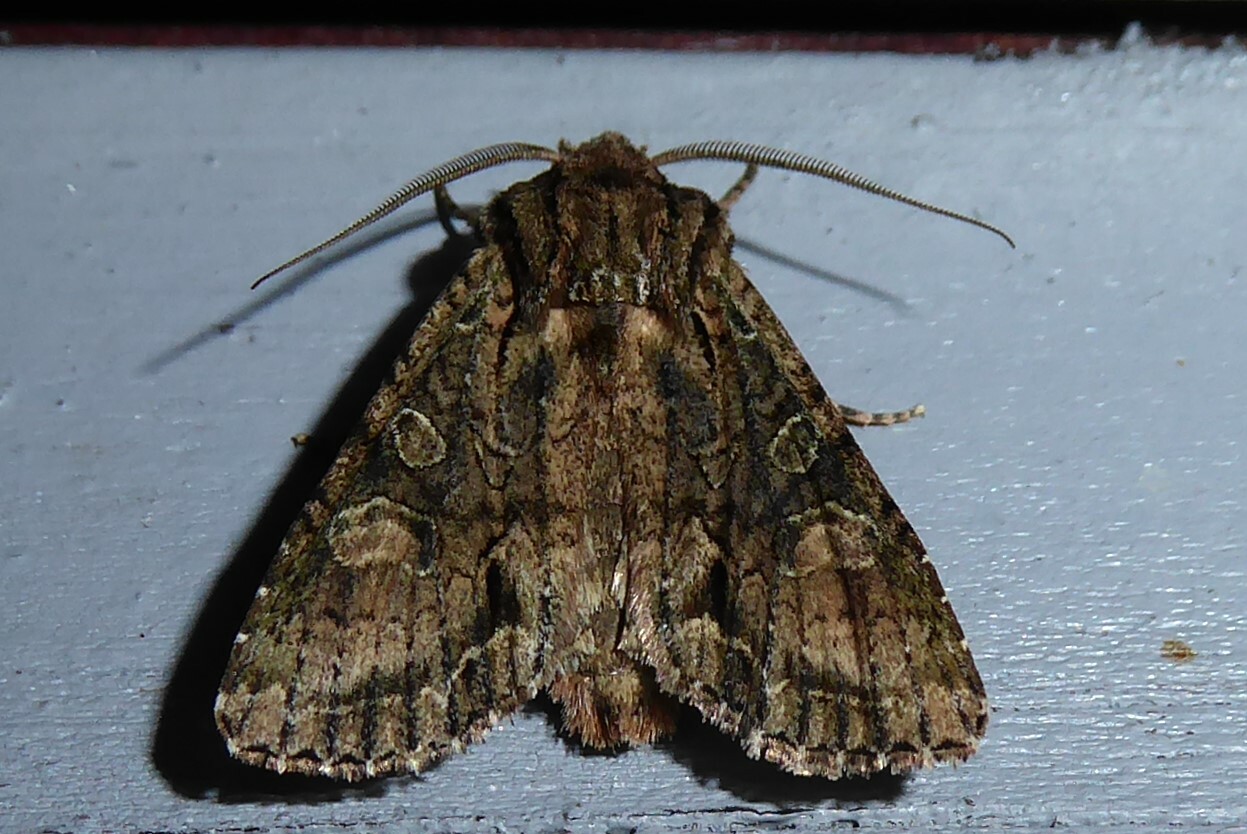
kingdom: Animalia
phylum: Arthropoda
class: Insecta
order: Lepidoptera
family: Noctuidae
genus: Ichneutica
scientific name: Ichneutica mutans
